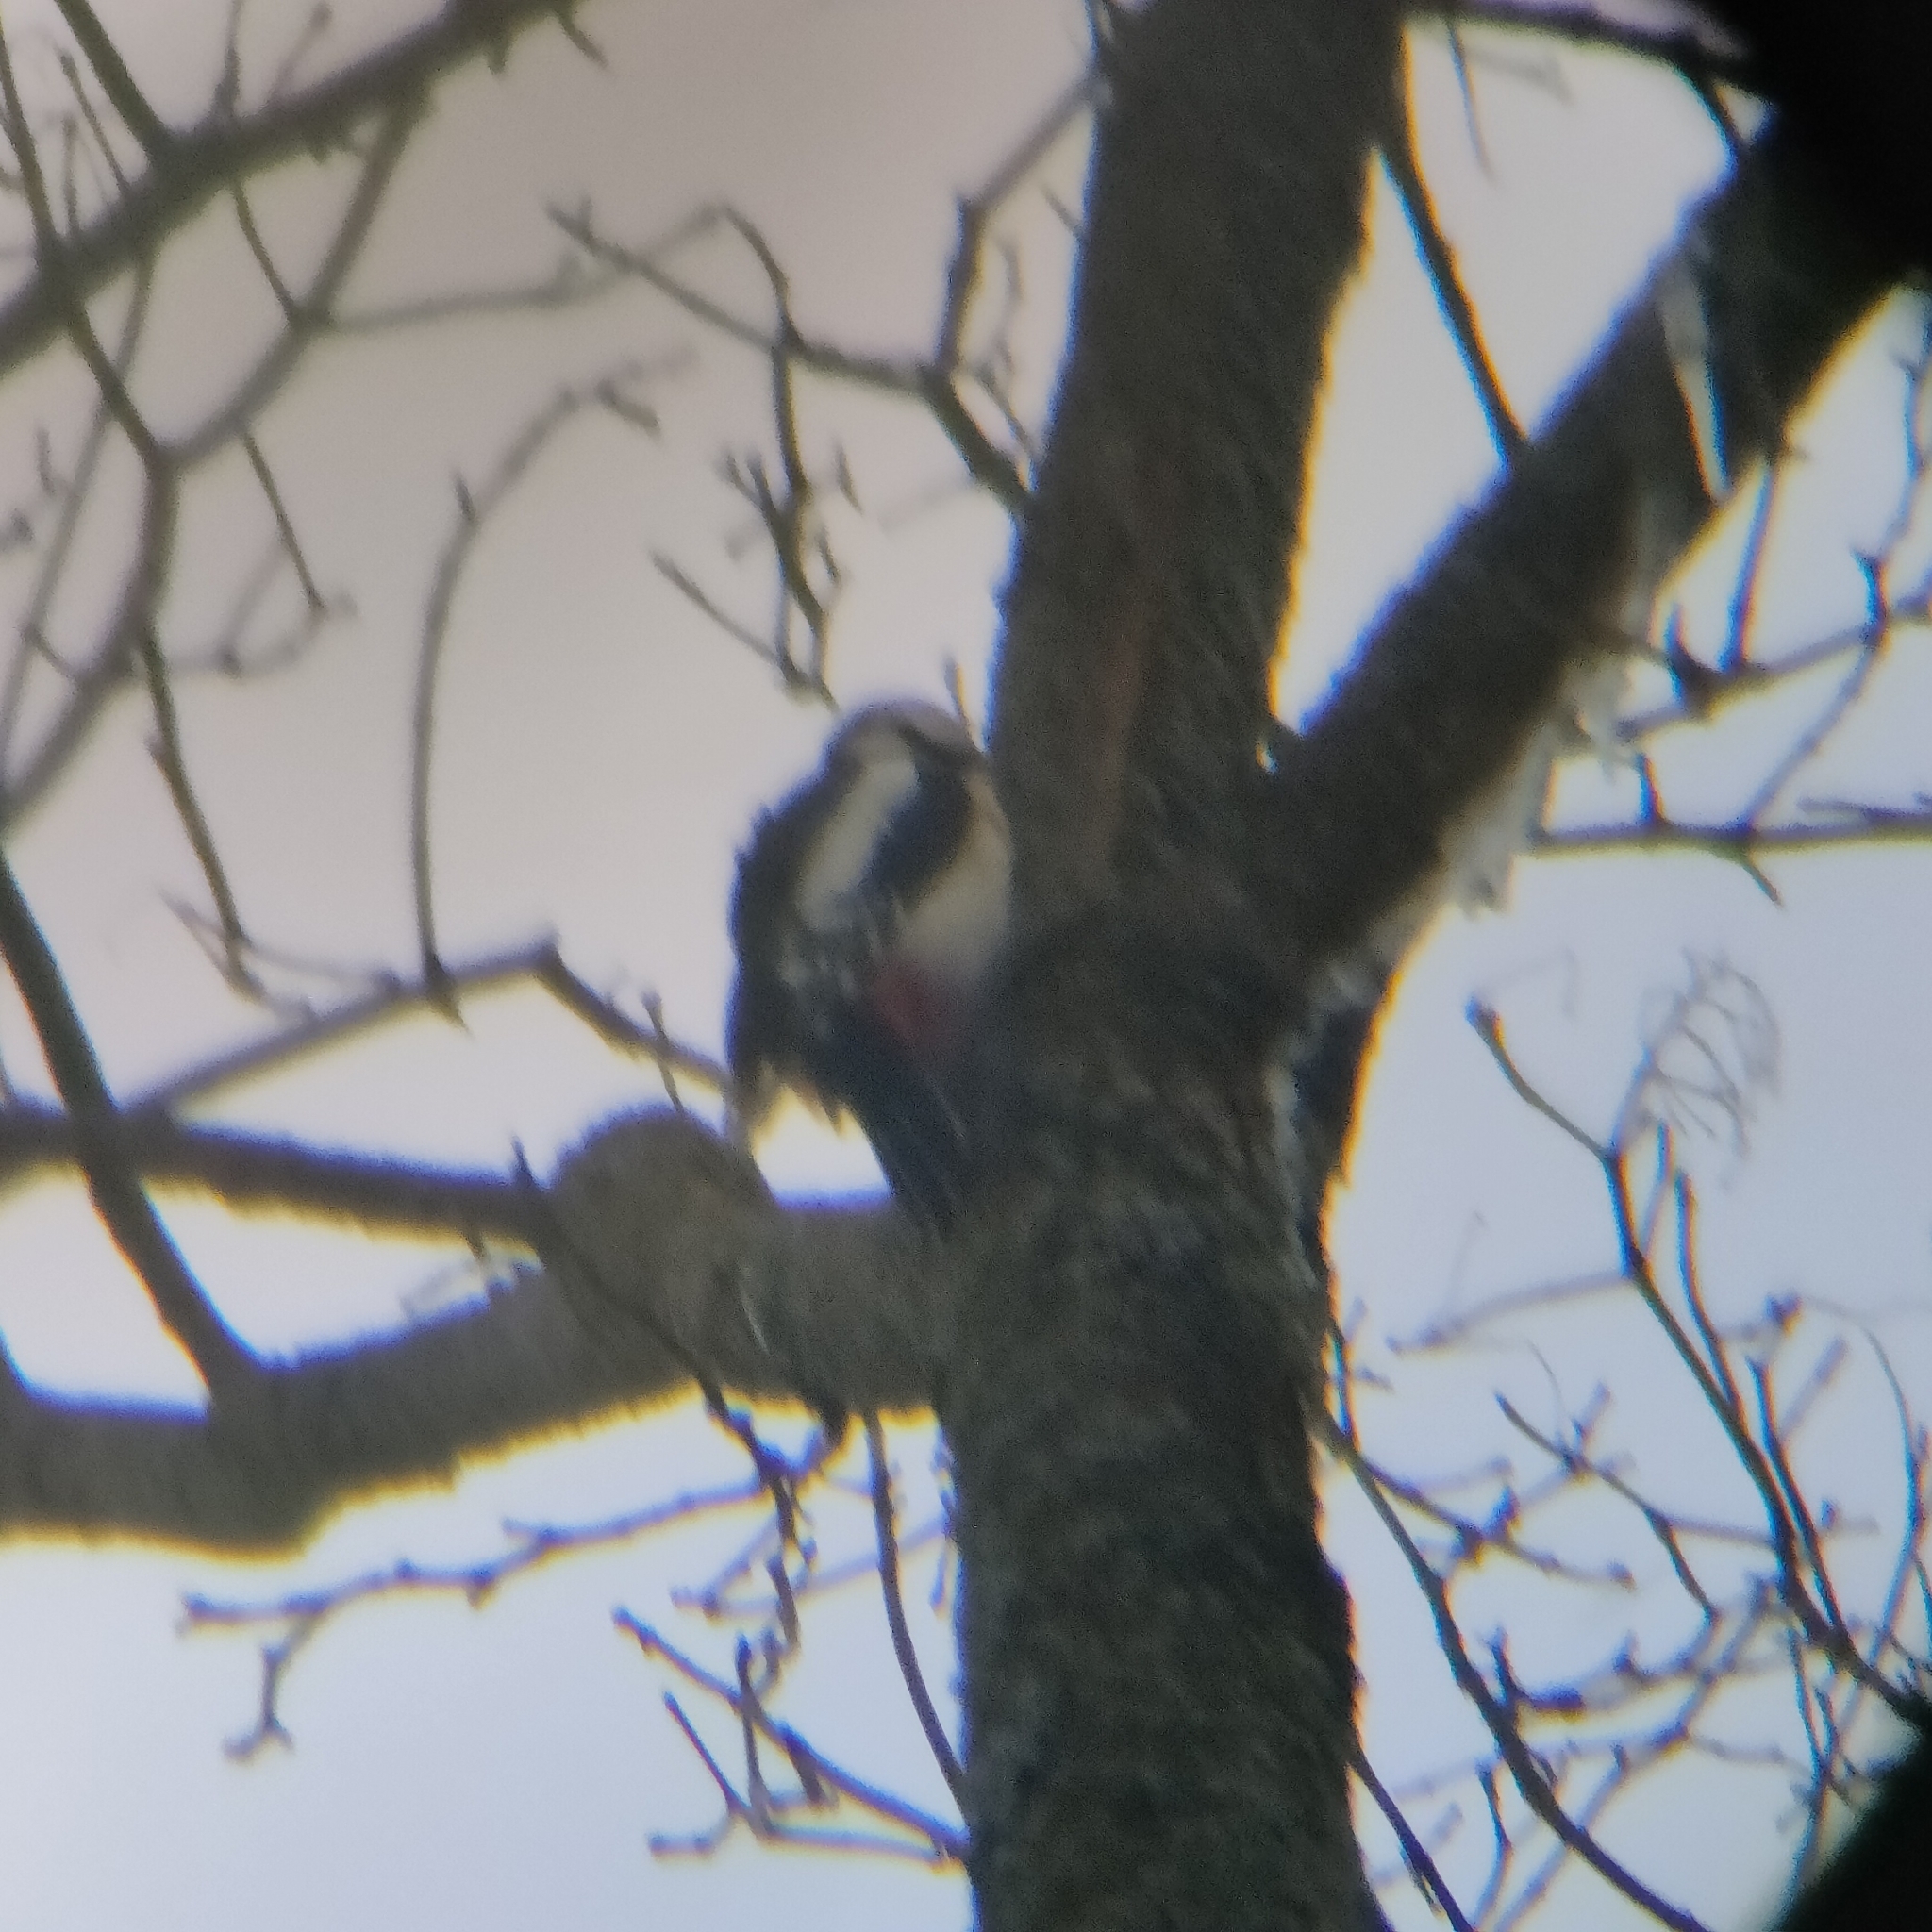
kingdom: Animalia
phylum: Chordata
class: Aves
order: Piciformes
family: Picidae
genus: Dendrocopos
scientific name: Dendrocopos major
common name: Great spotted woodpecker
